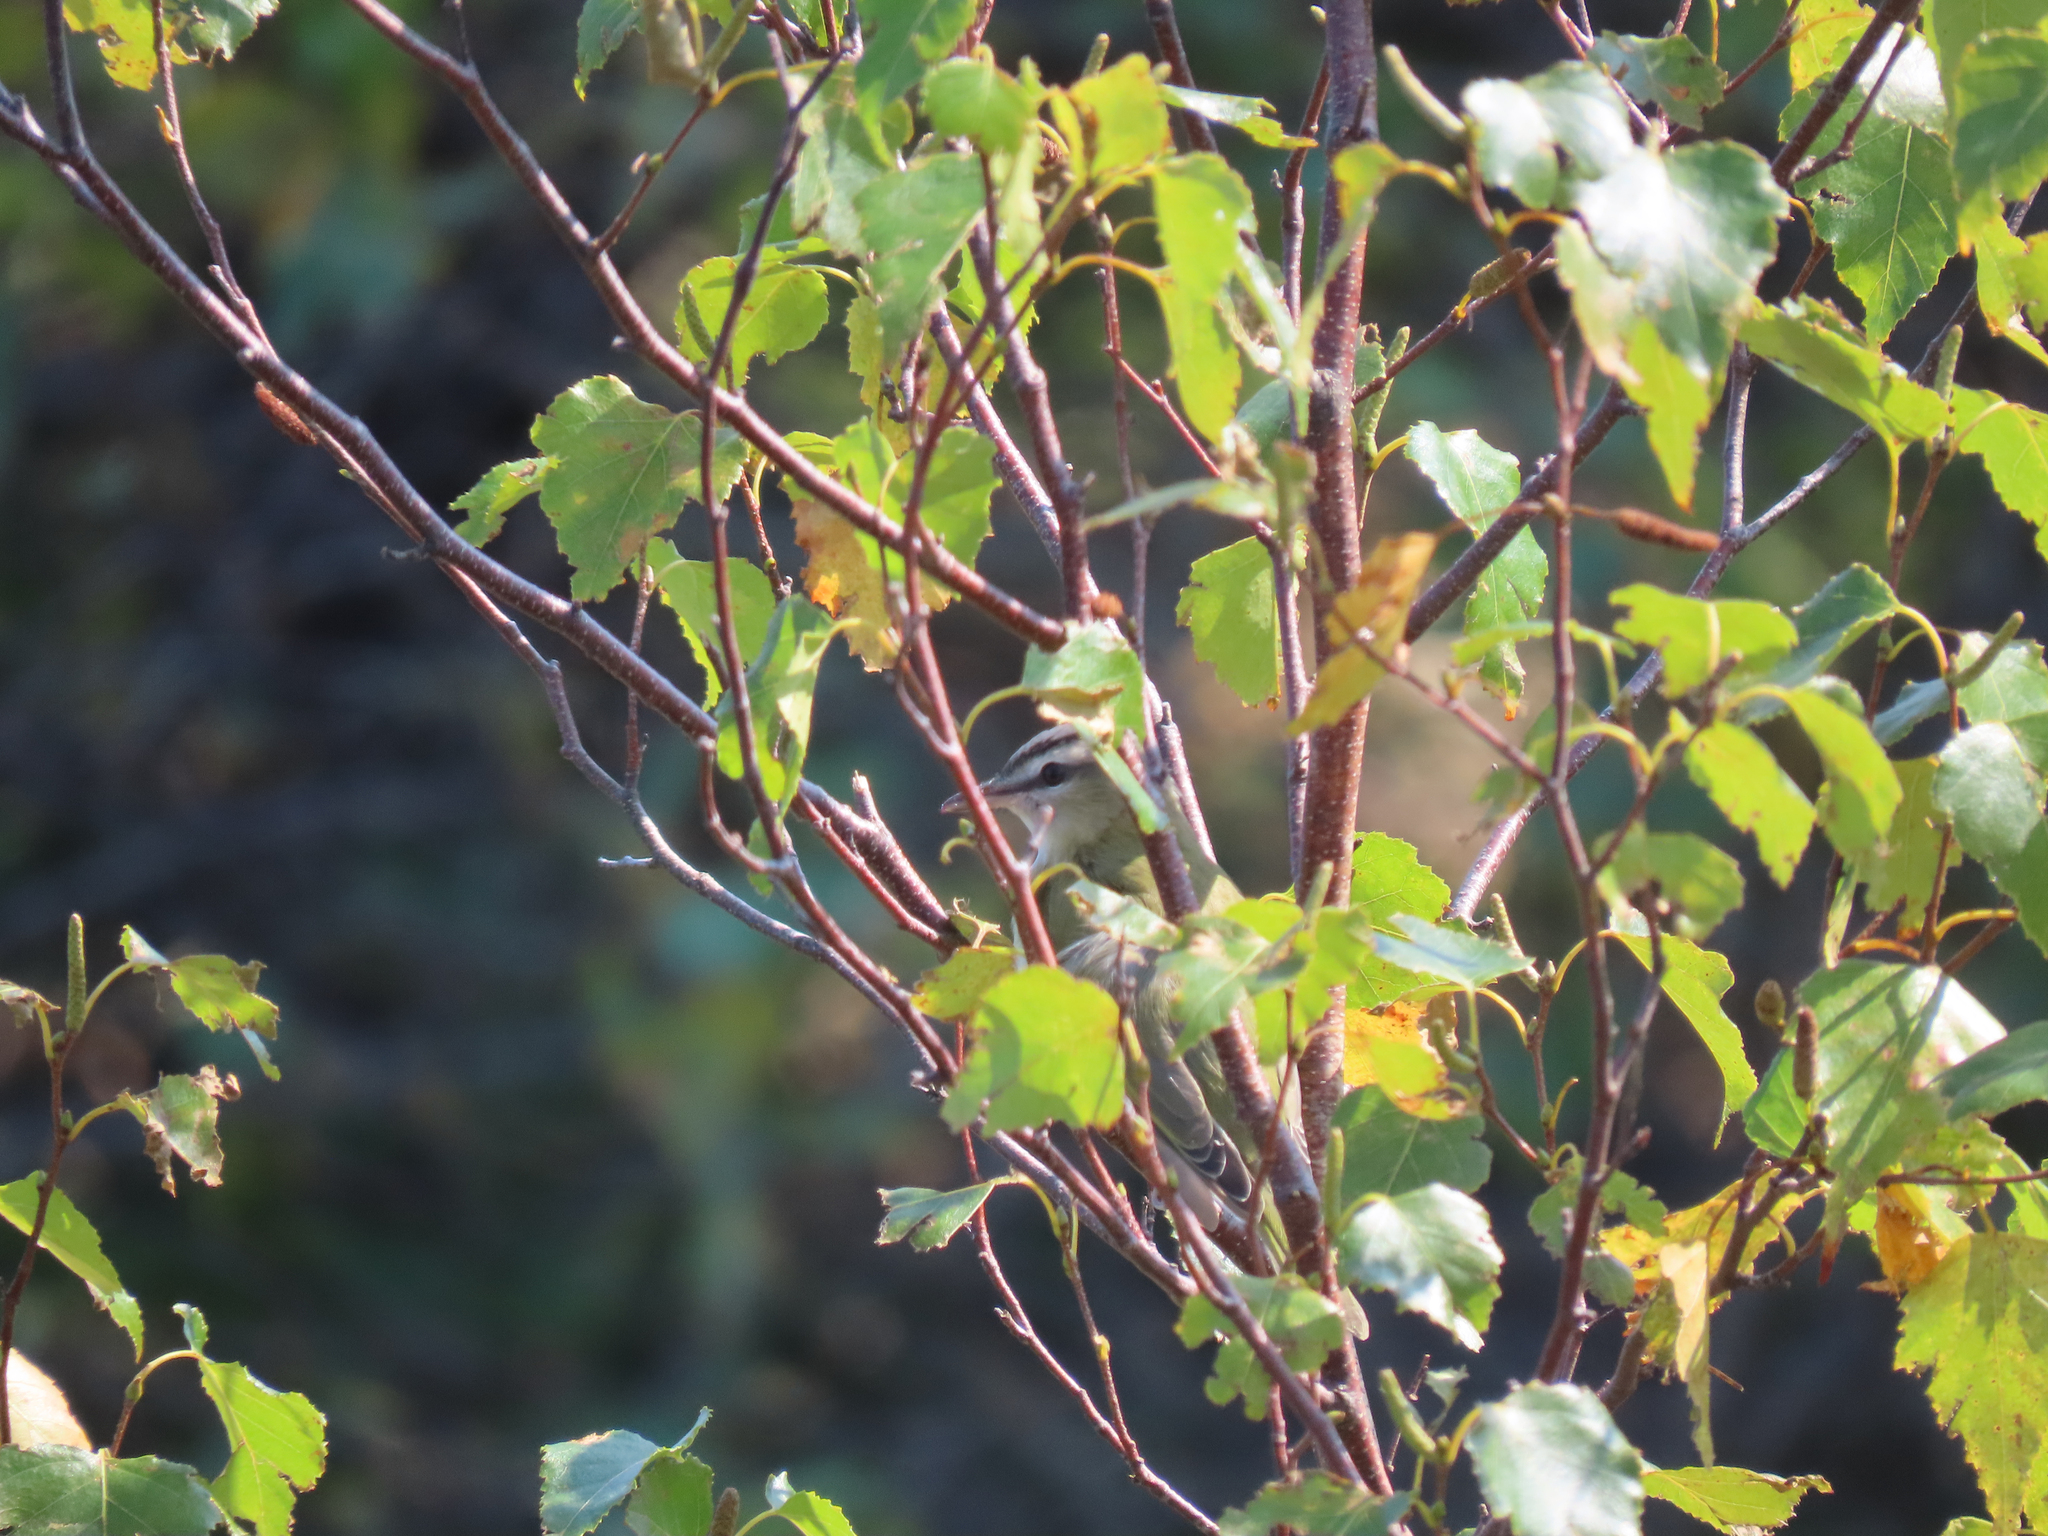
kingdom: Animalia
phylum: Chordata
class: Aves
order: Passeriformes
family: Vireonidae
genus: Vireo
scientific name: Vireo olivaceus
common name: Red-eyed vireo
